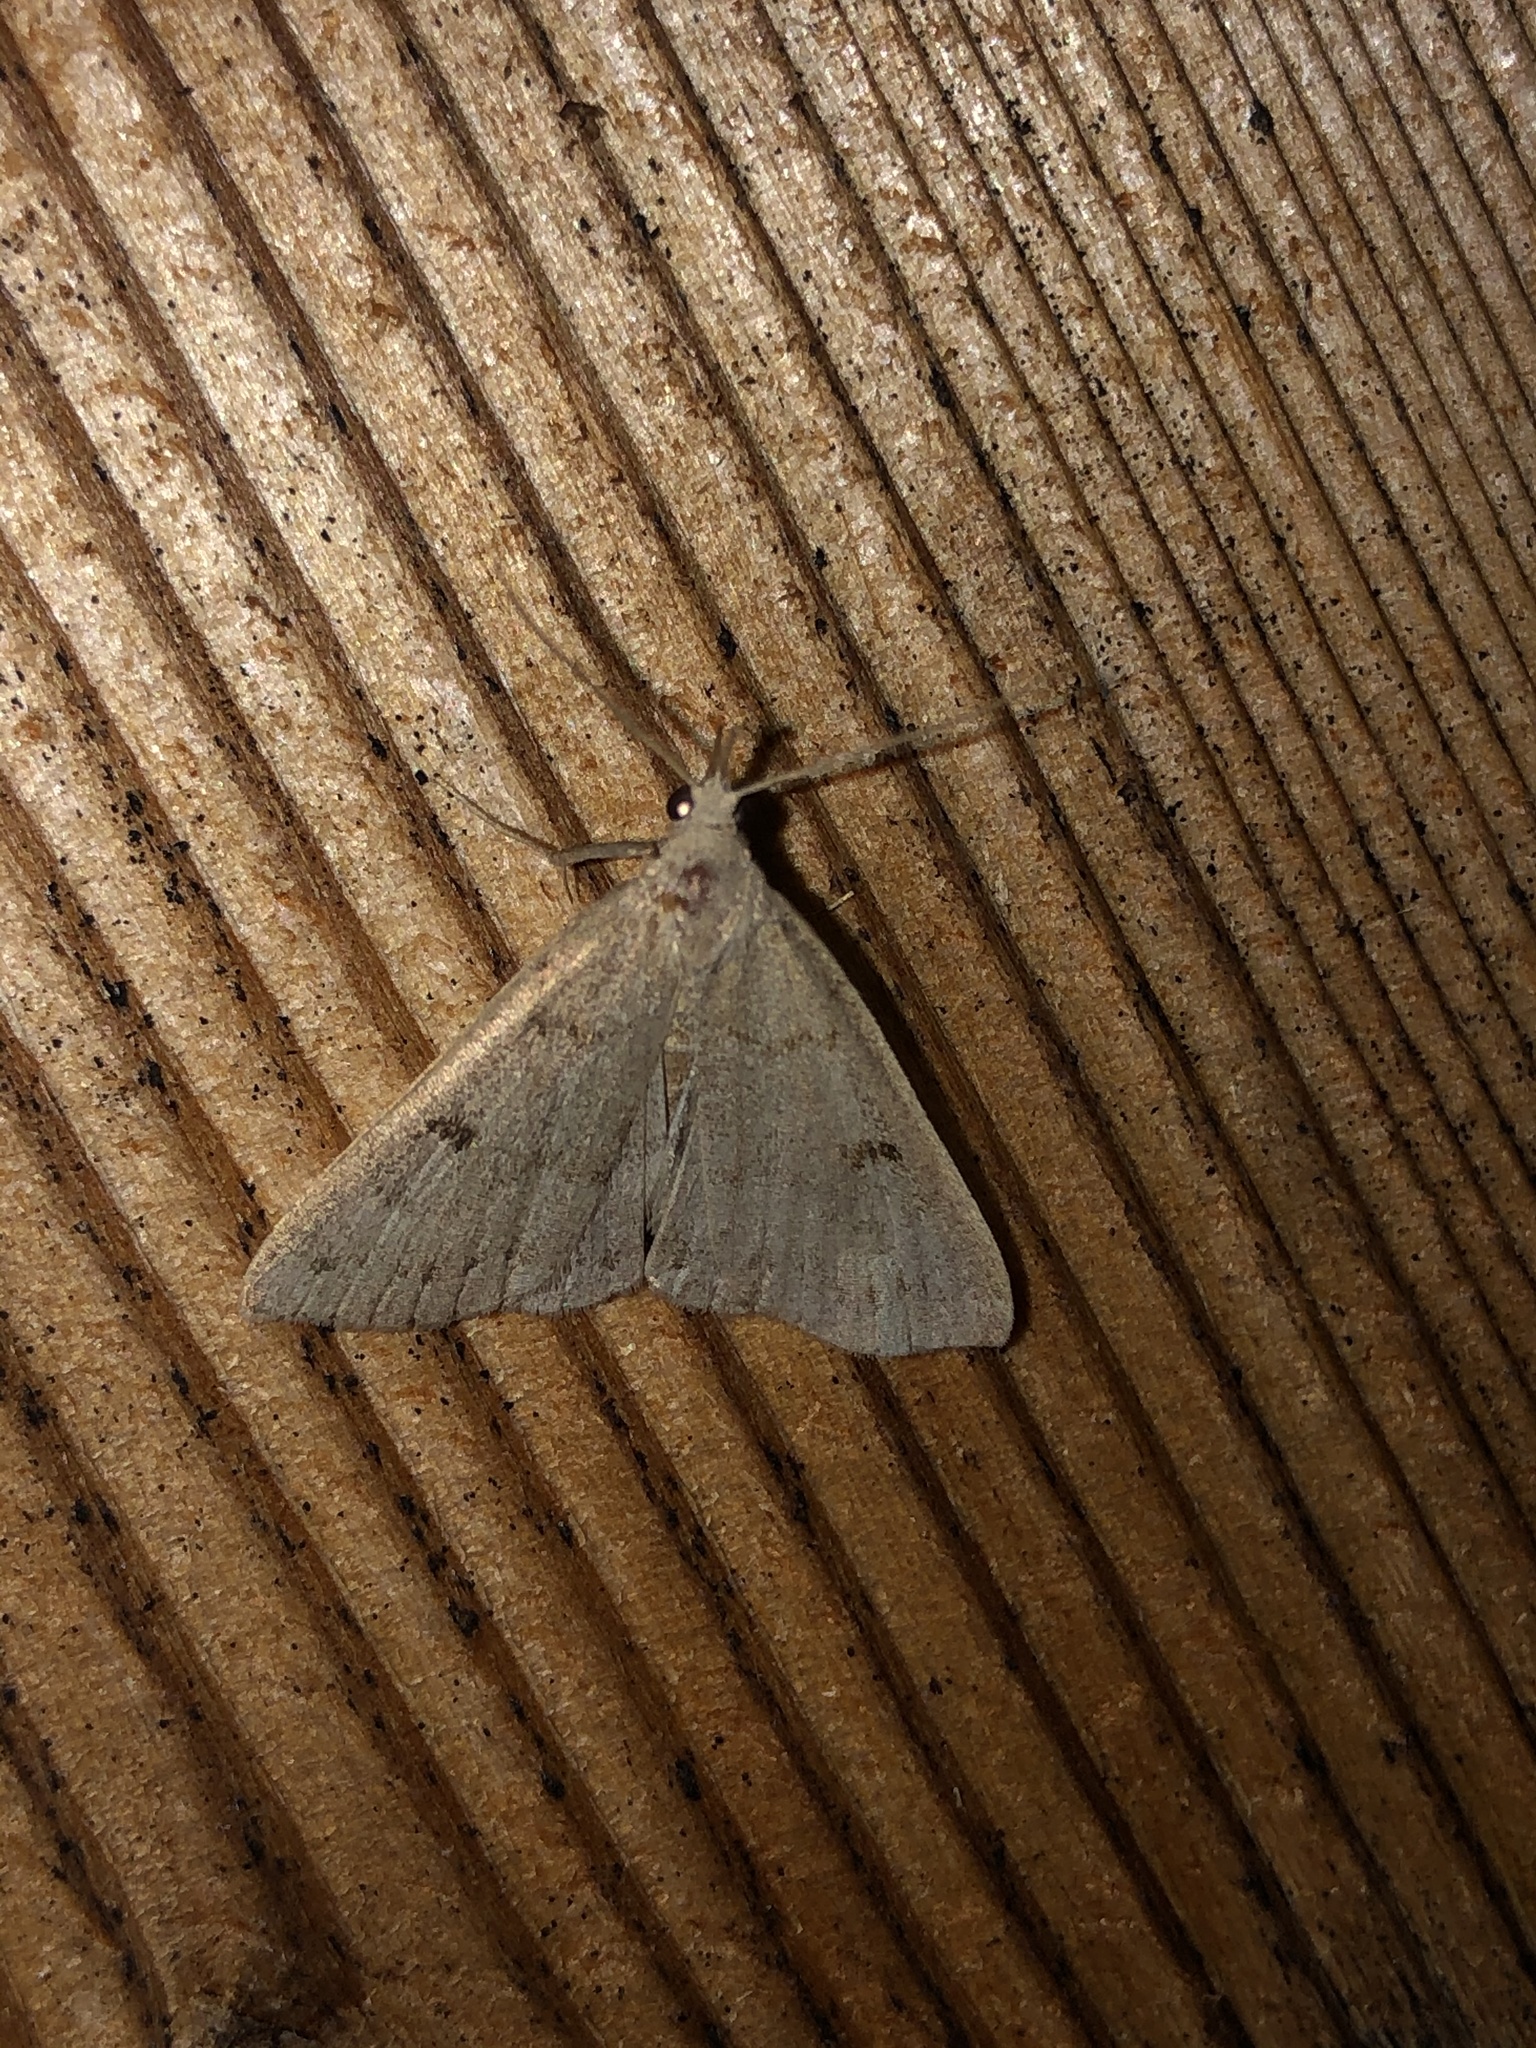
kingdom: Animalia
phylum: Arthropoda
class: Insecta
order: Lepidoptera
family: Erebidae
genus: Macrochilo
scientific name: Macrochilo morbidalis
